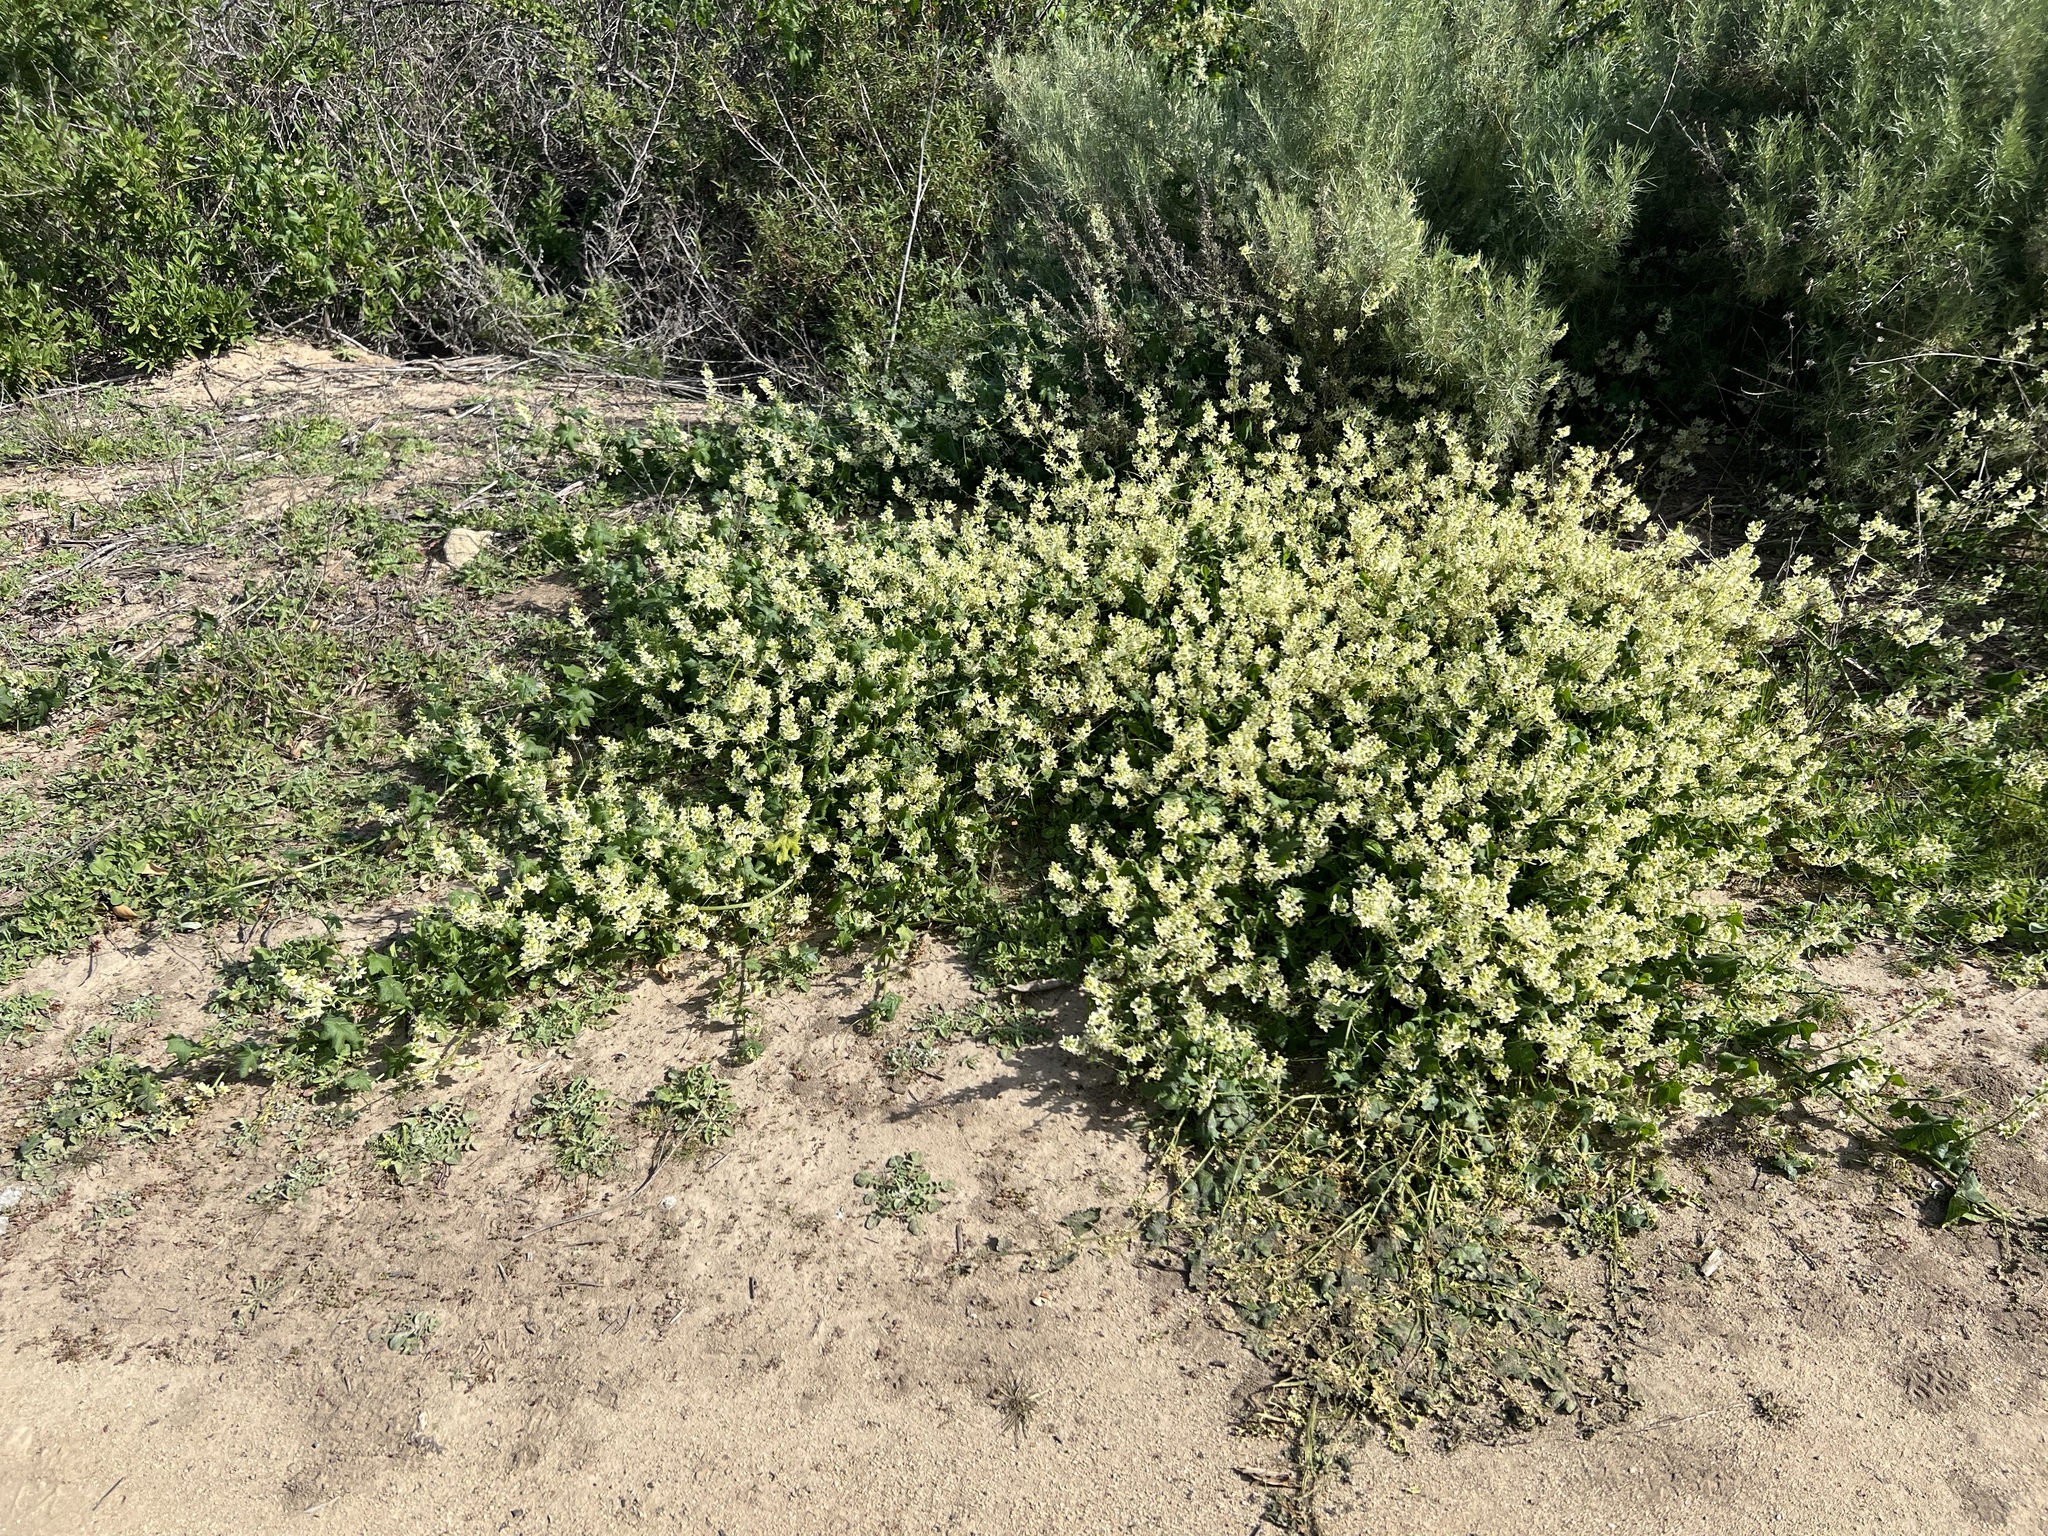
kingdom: Plantae
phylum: Tracheophyta
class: Magnoliopsida
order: Cucurbitales
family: Cucurbitaceae
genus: Marah
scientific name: Marah macrocarpa
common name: Cucamonga manroot
